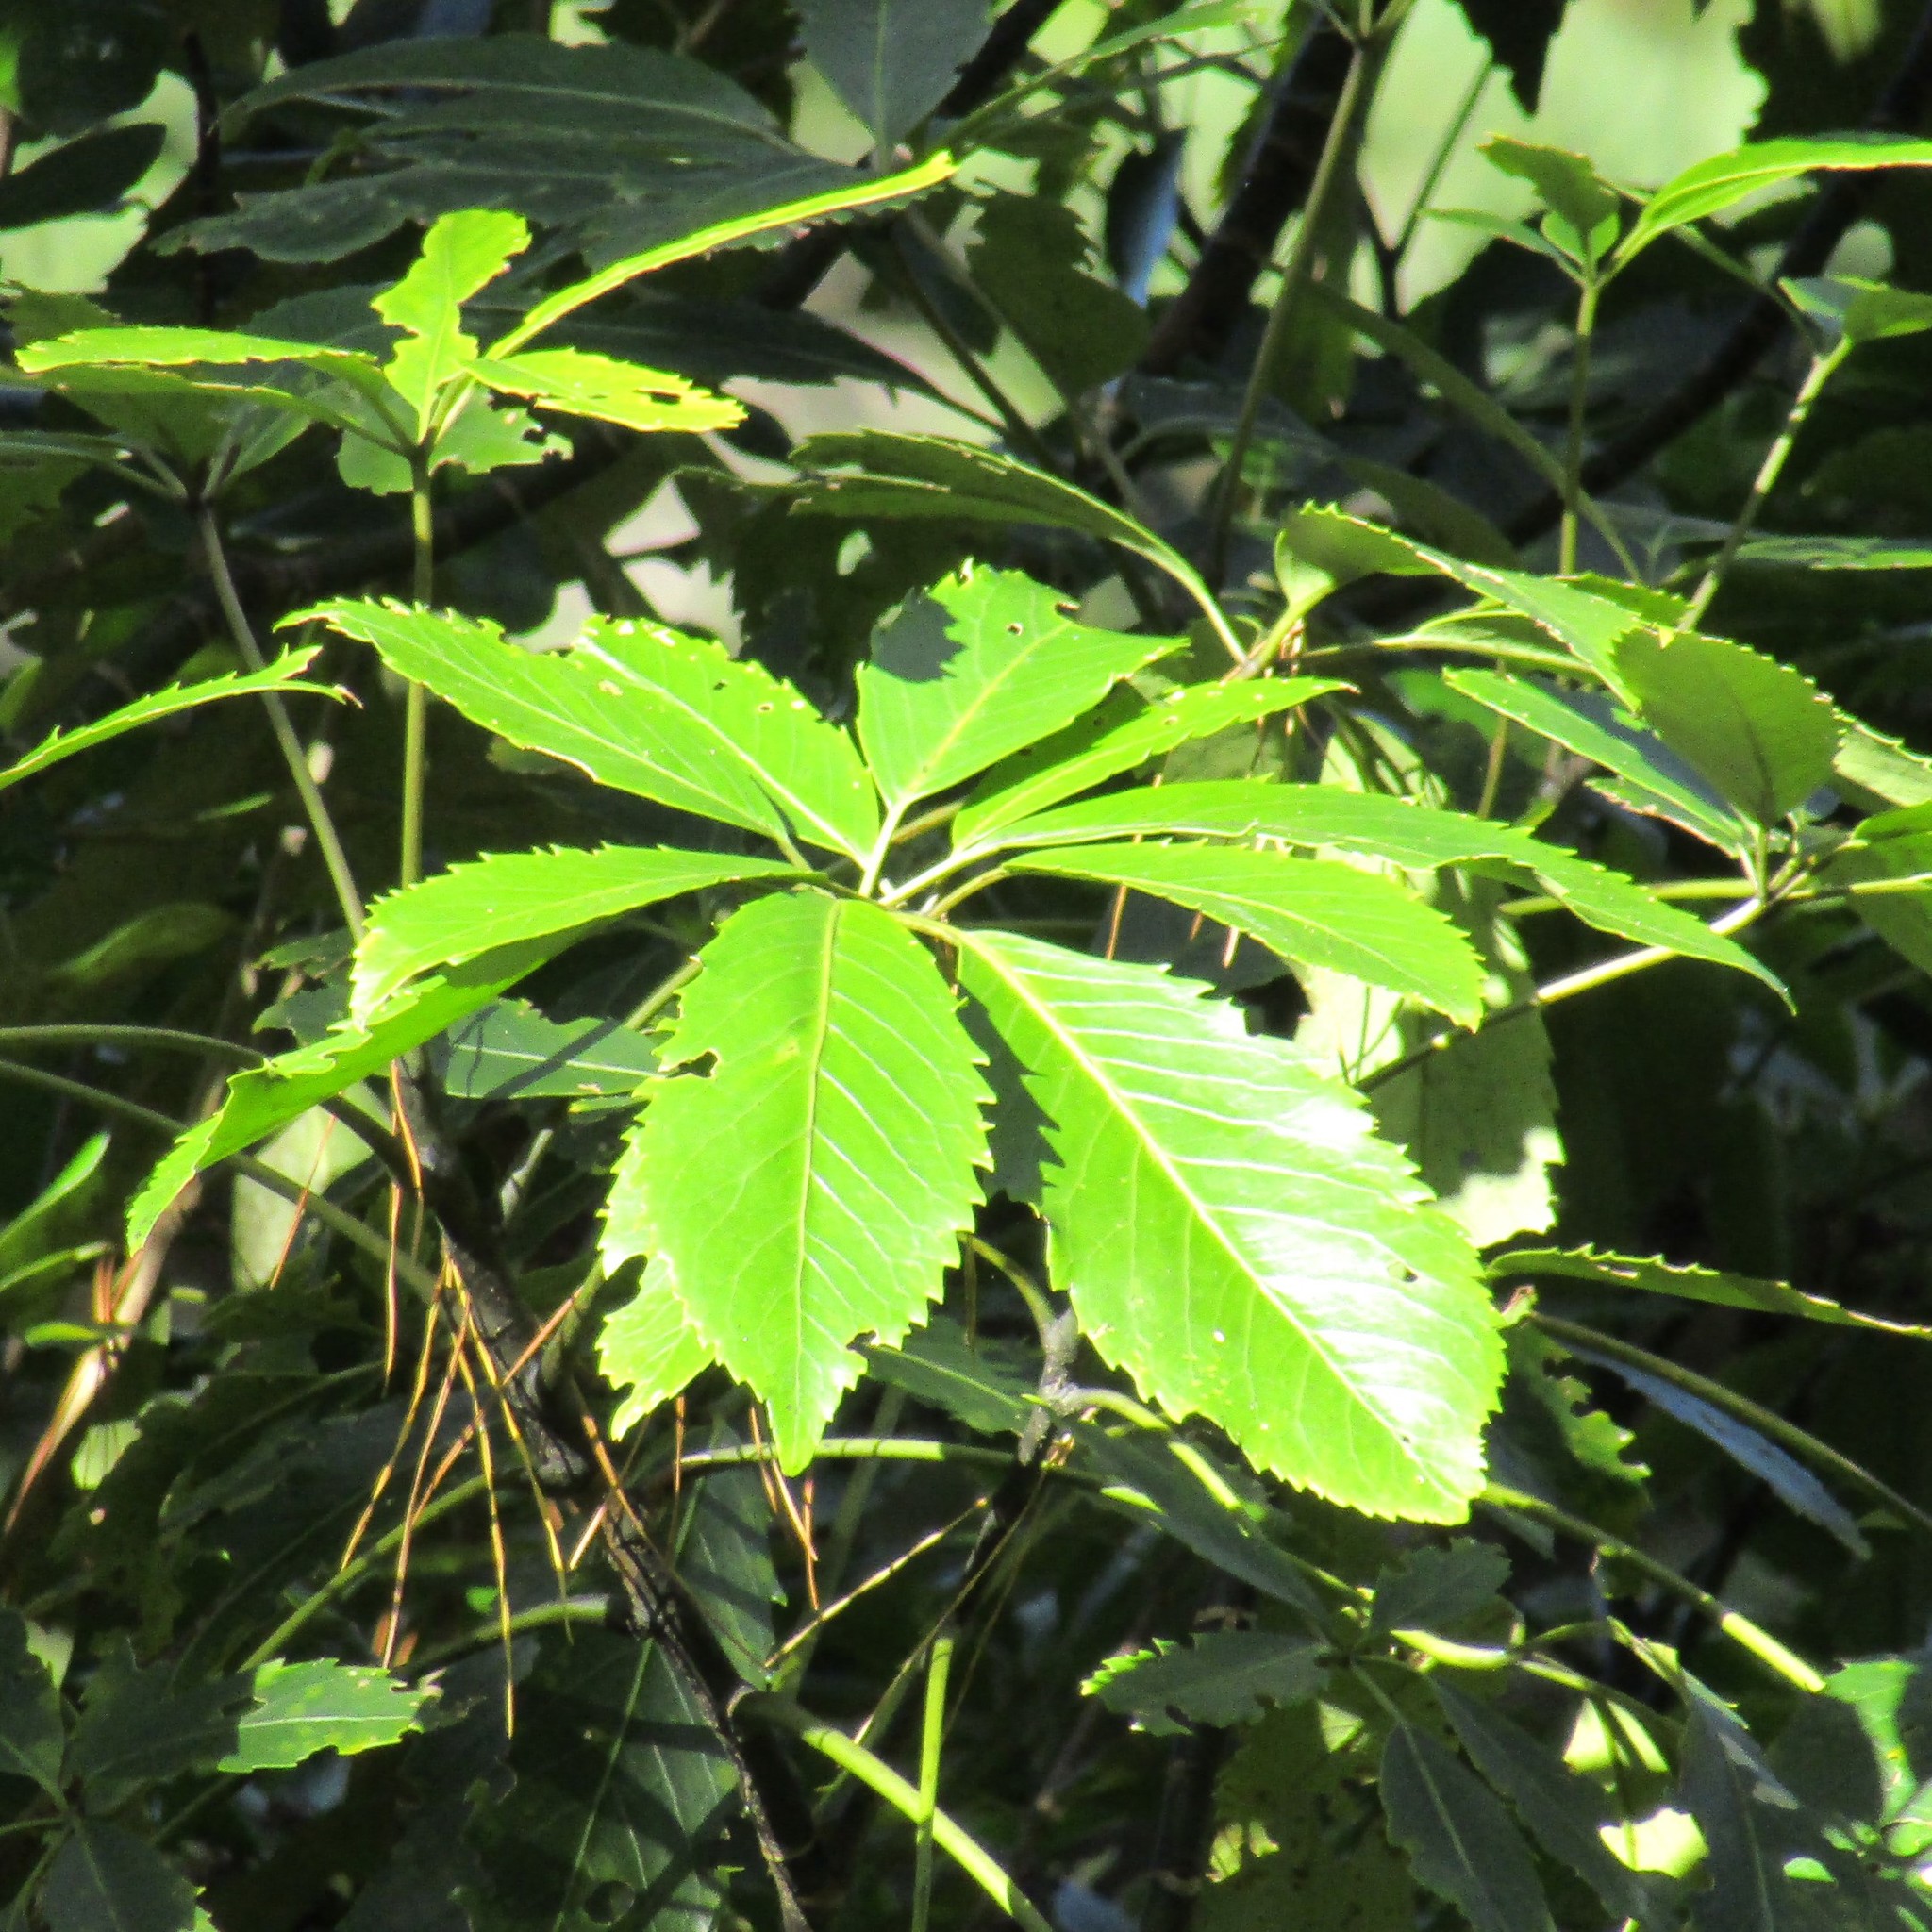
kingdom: Plantae
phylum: Tracheophyta
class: Magnoliopsida
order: Apiales
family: Araliaceae
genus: Neopanax
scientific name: Neopanax arboreus
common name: Five-fingers
